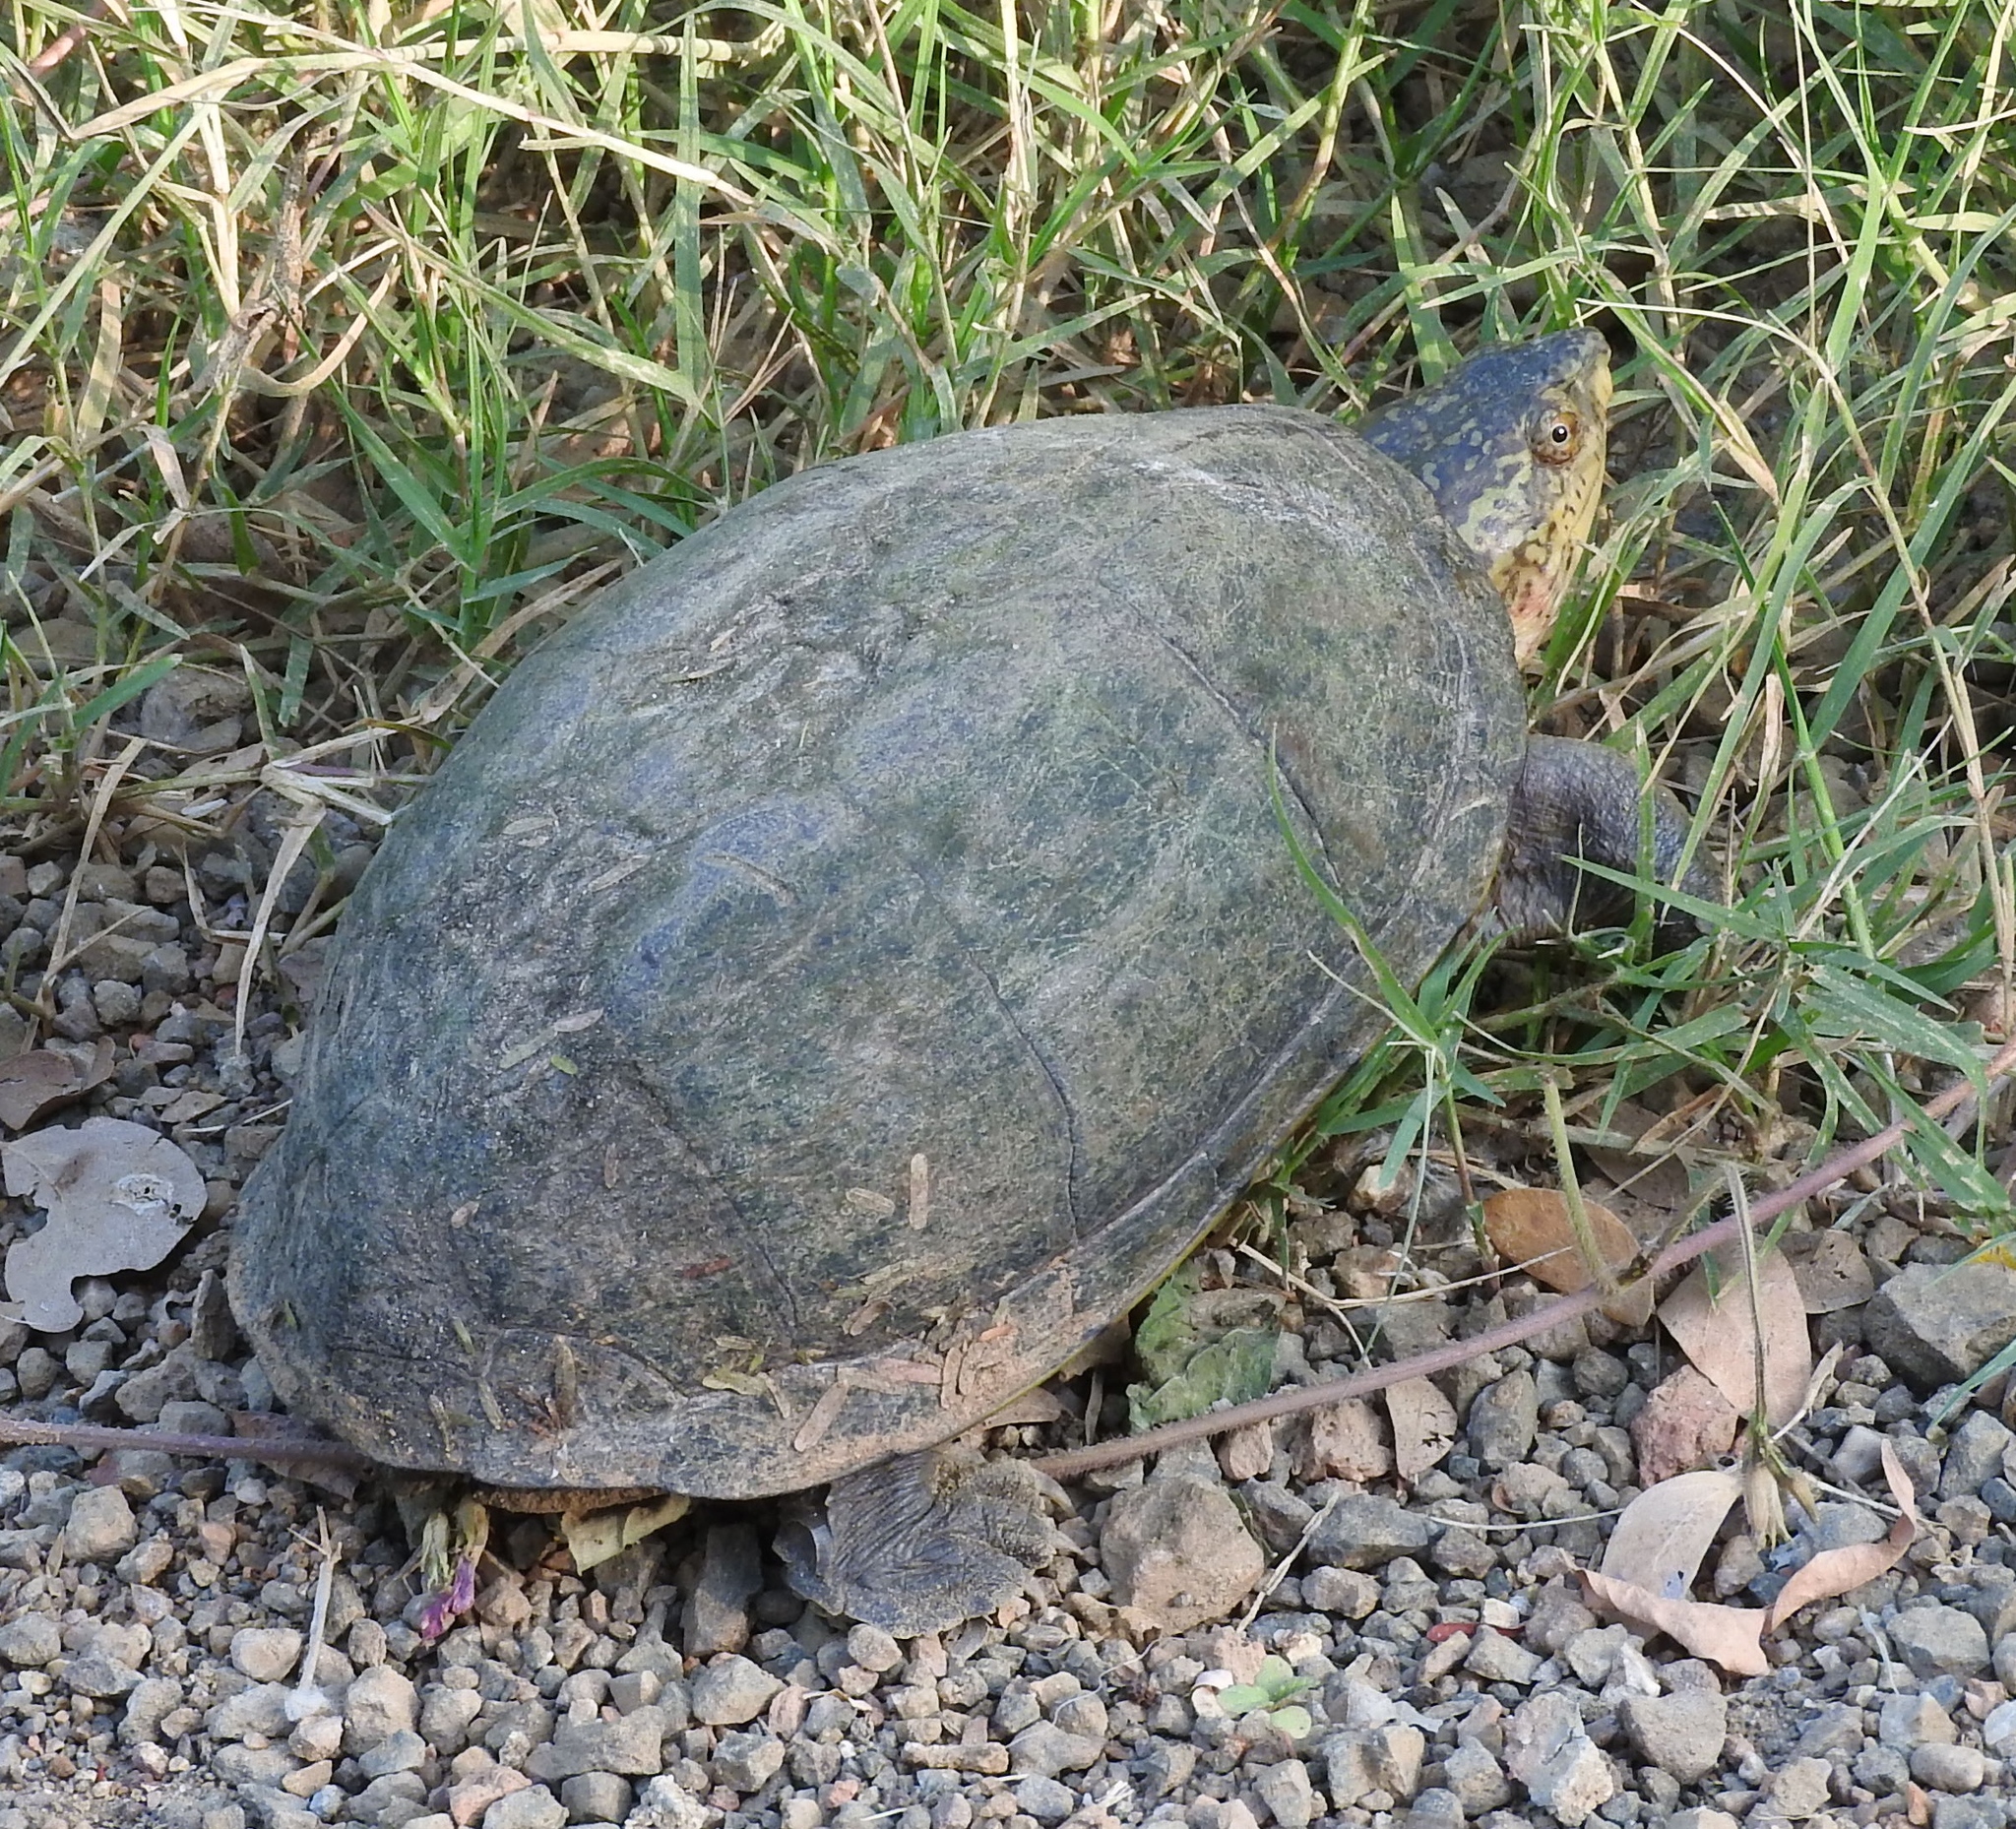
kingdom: Animalia
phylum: Chordata
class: Testudines
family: Kinosternidae
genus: Kinosternon
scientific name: Kinosternon integrum
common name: Mexican mud turtle
